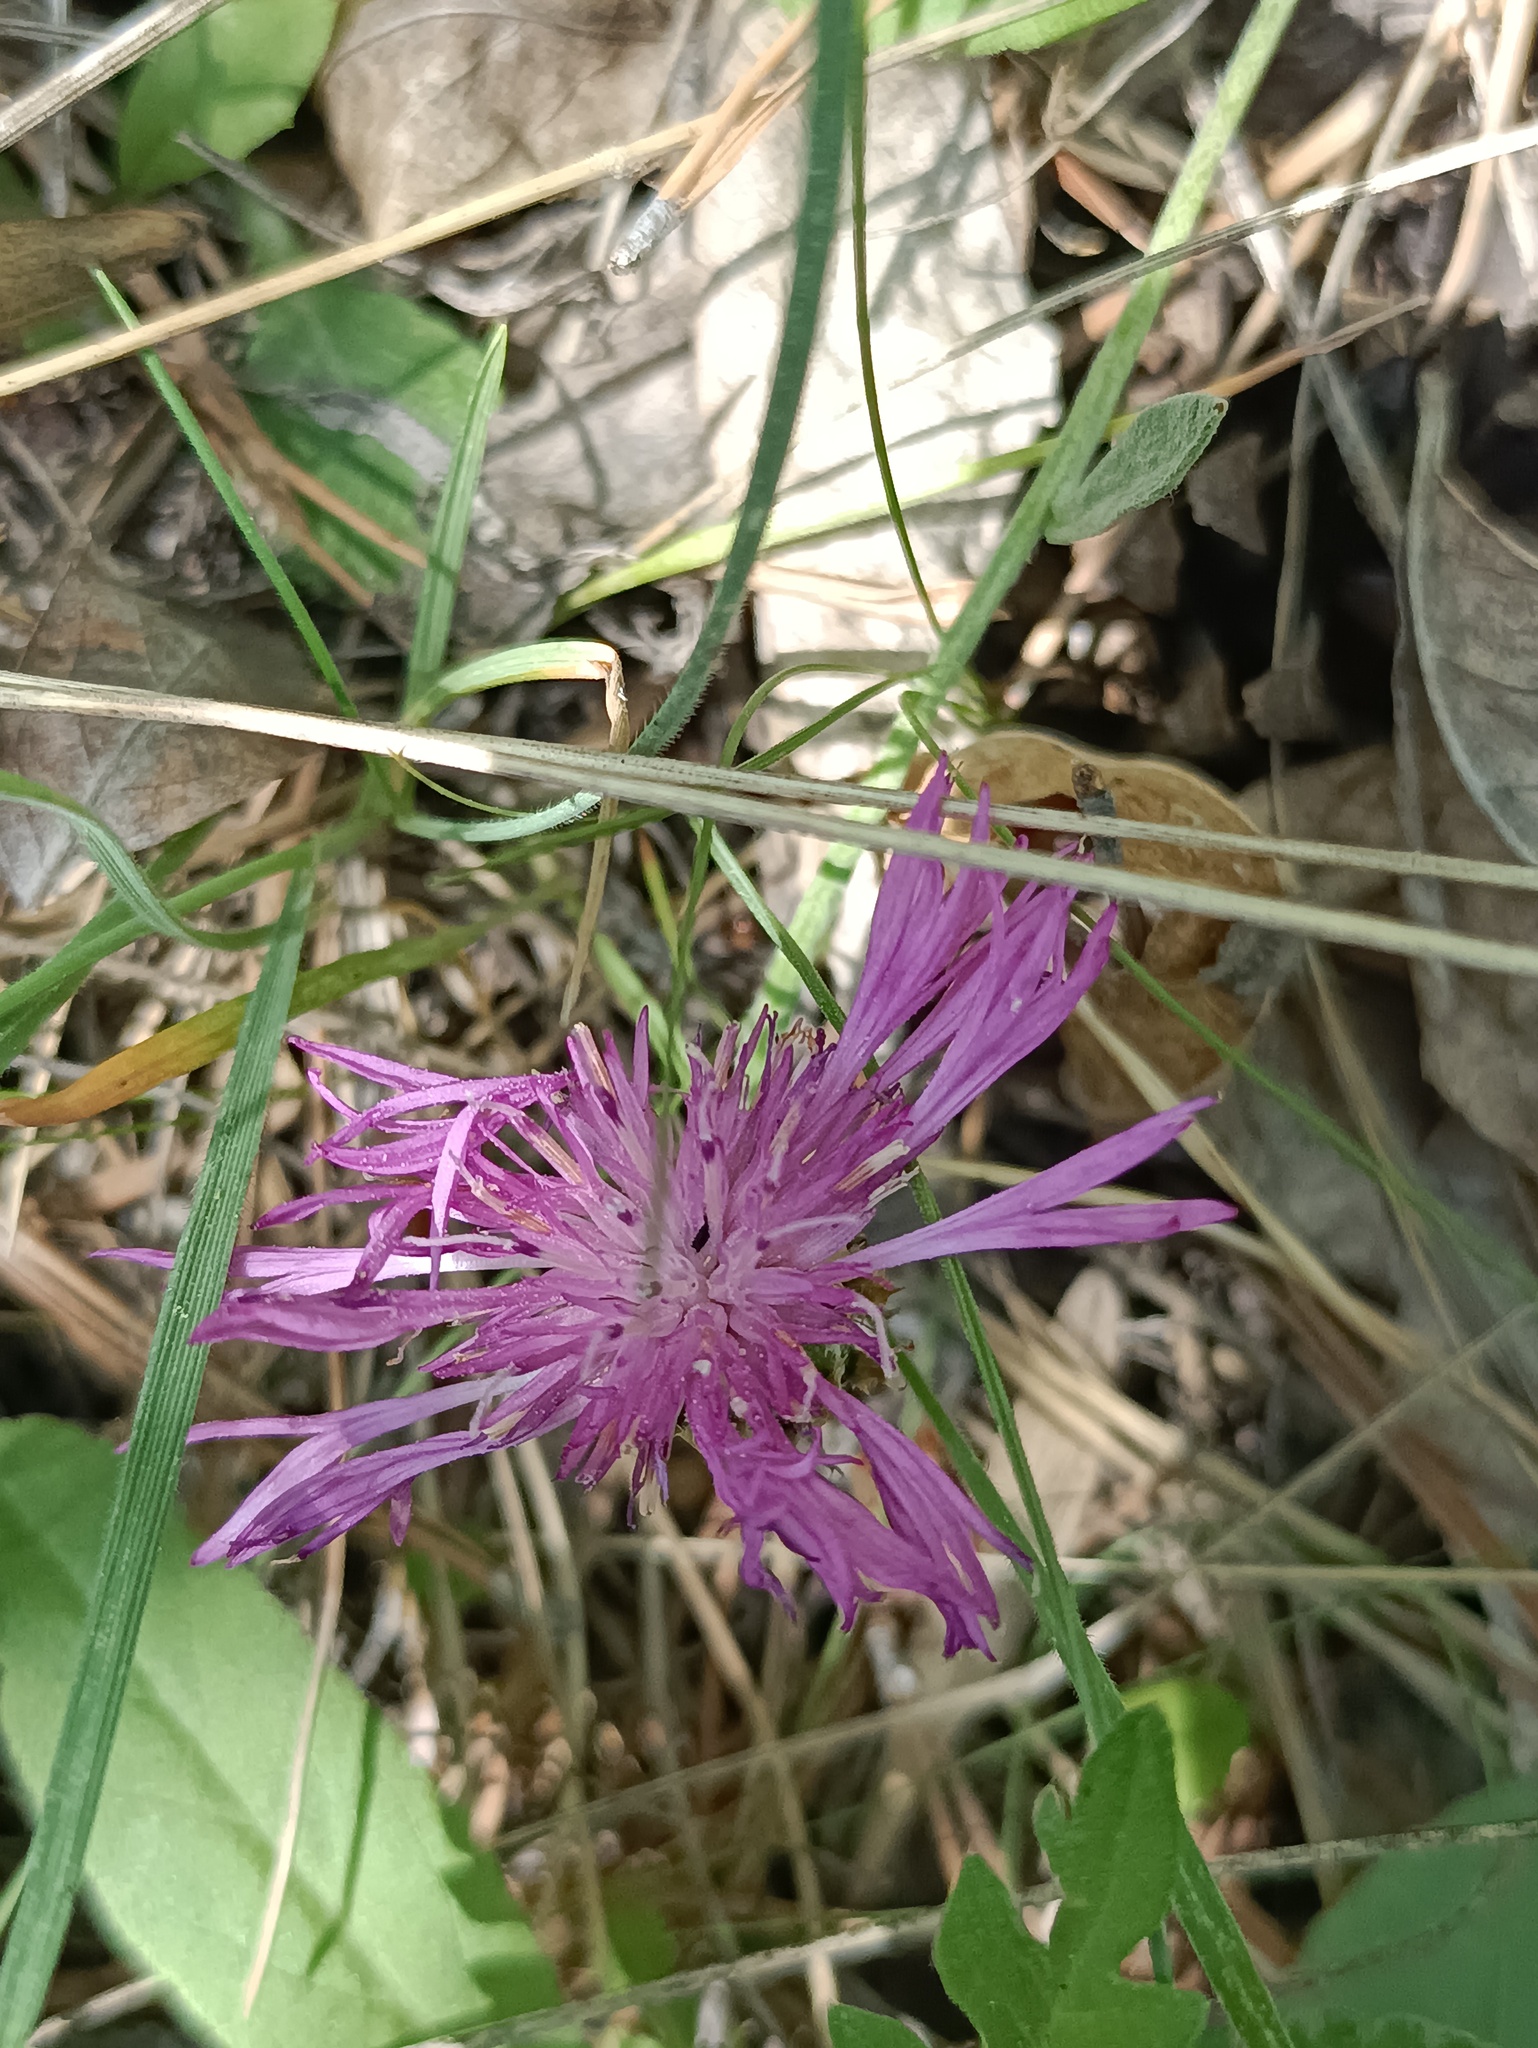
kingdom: Plantae
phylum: Tracheophyta
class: Magnoliopsida
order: Asterales
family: Asteraceae
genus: Psephellus
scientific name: Psephellus marschallianus
